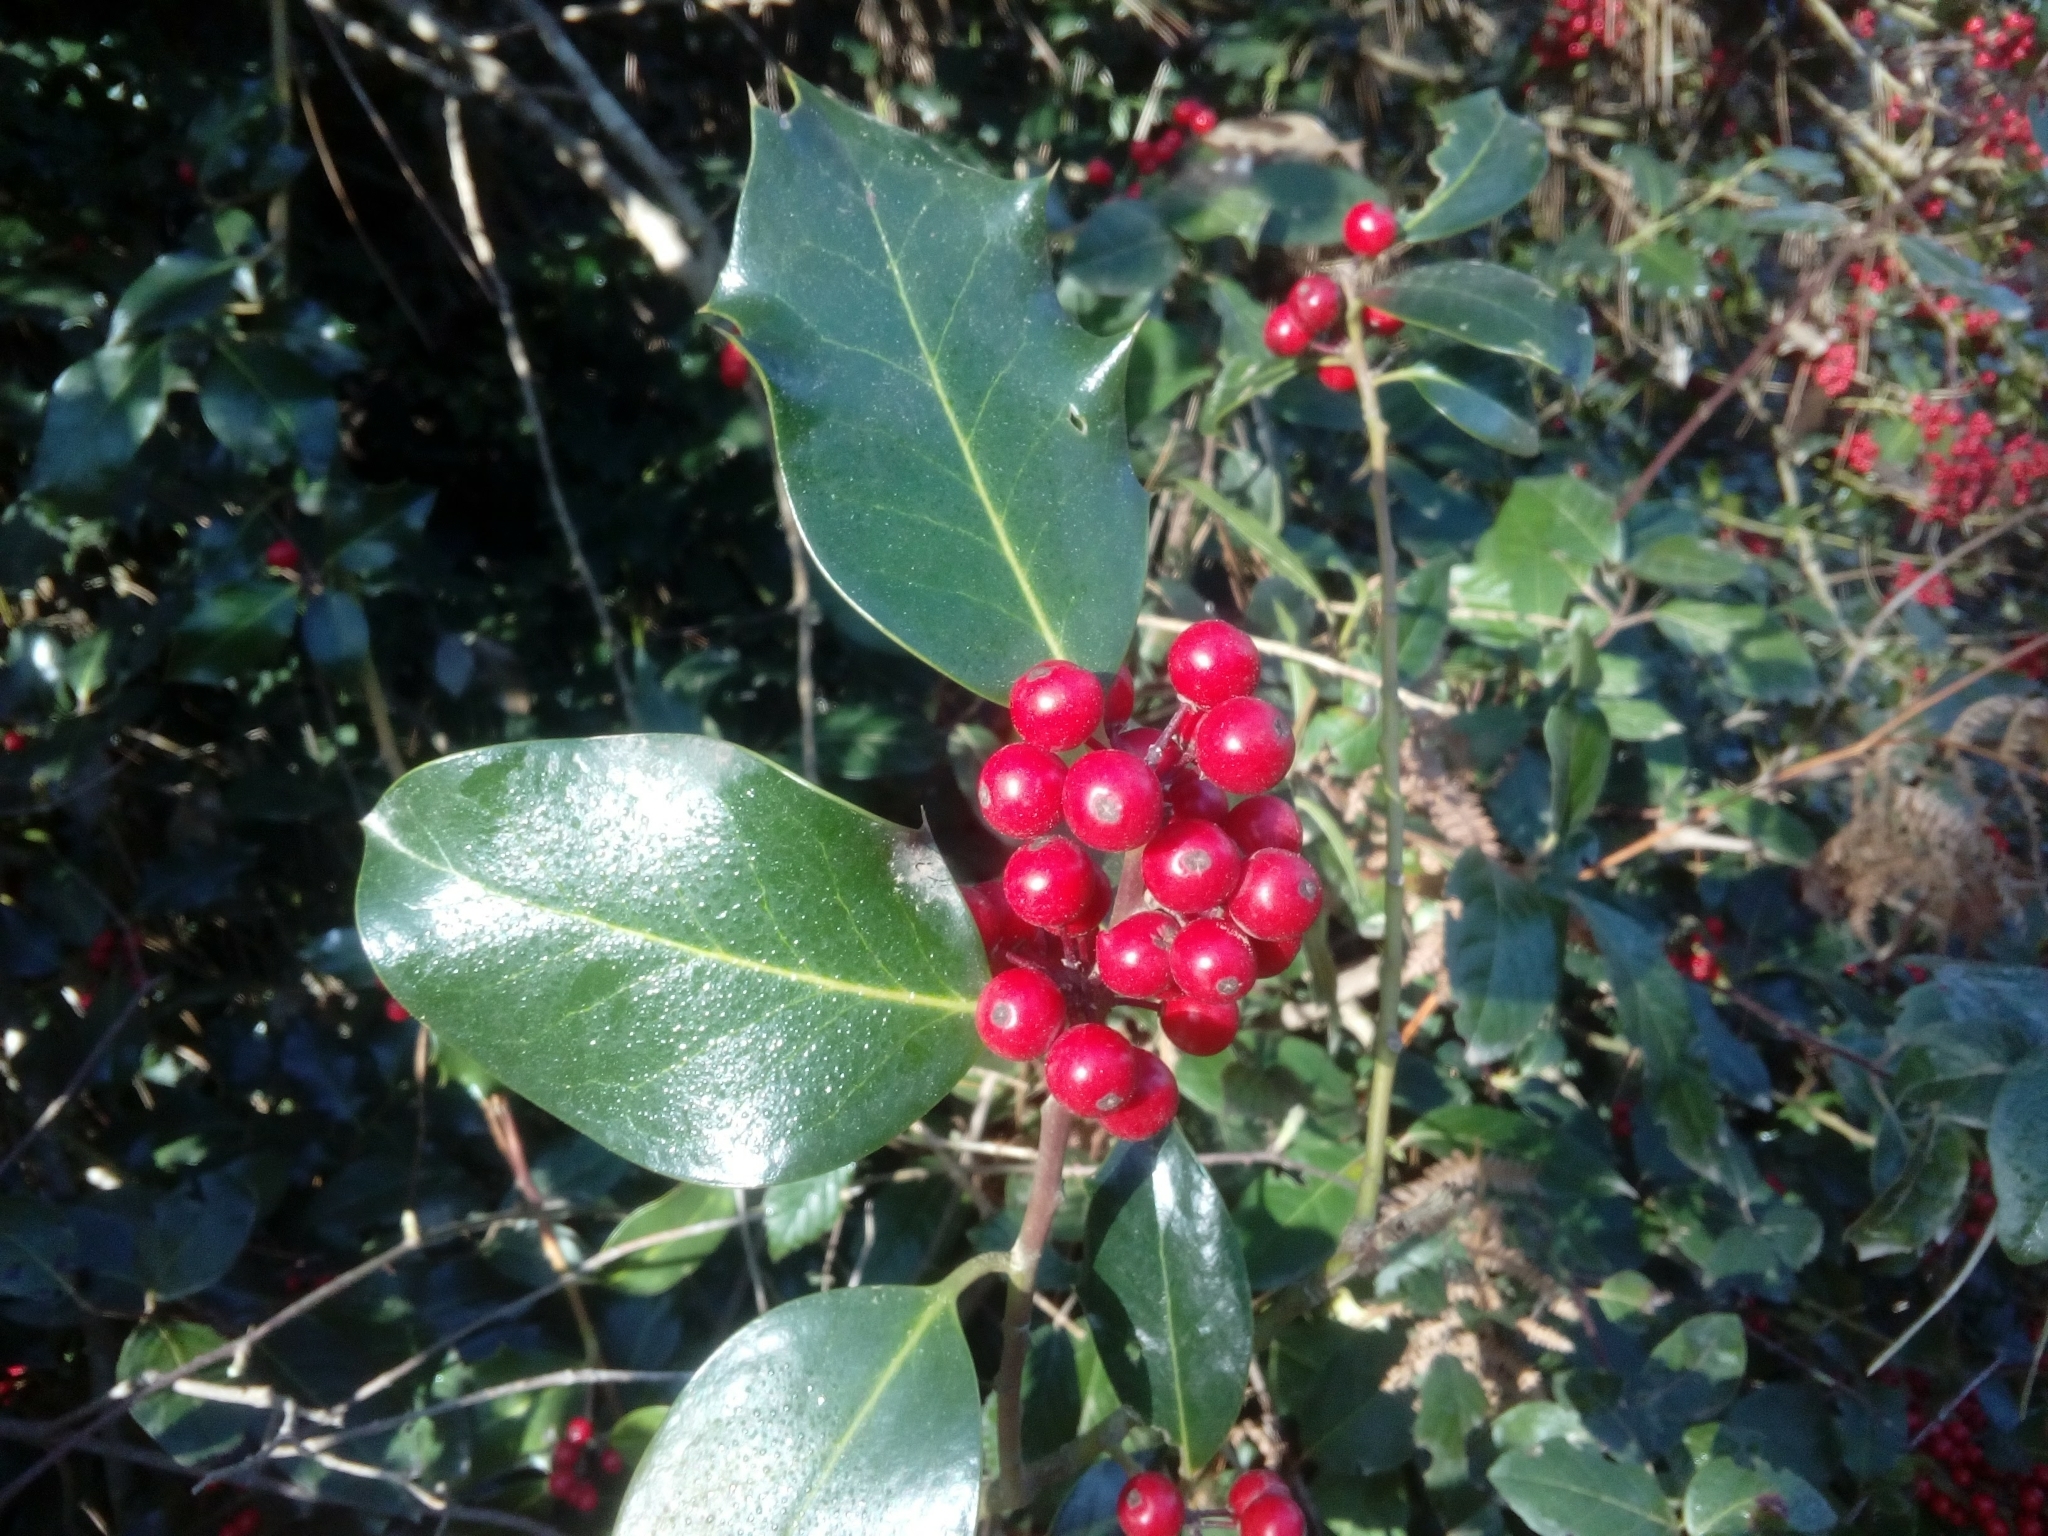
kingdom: Plantae
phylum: Tracheophyta
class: Magnoliopsida
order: Aquifoliales
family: Aquifoliaceae
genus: Ilex
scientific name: Ilex aquifolium
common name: English holly
